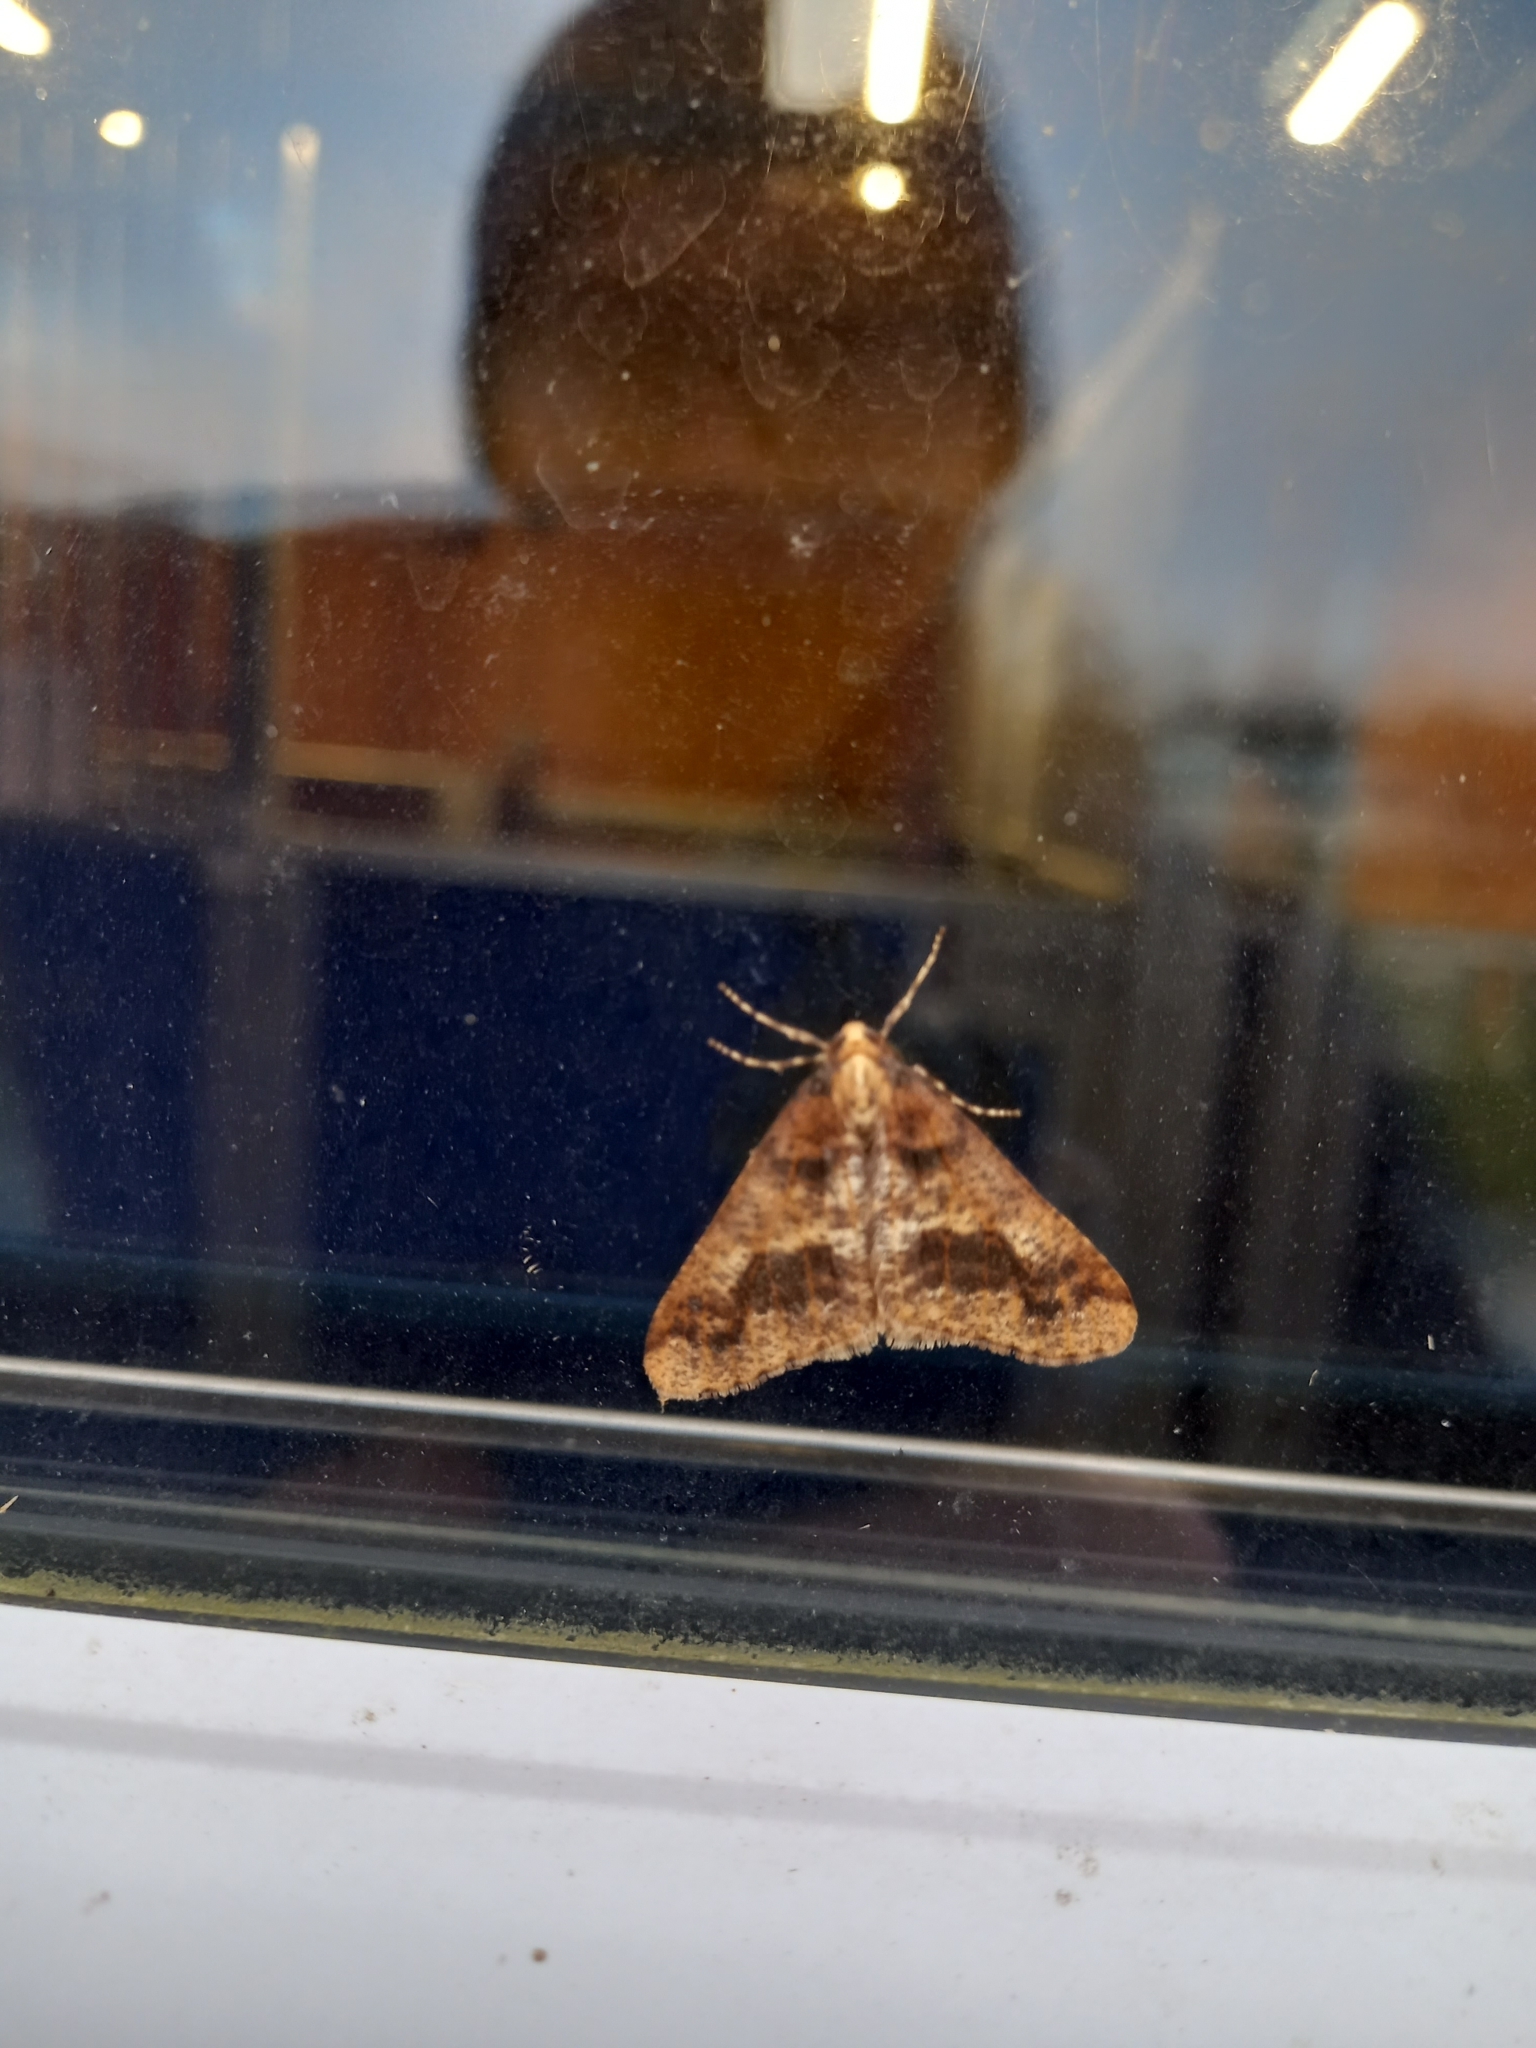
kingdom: Animalia
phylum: Arthropoda
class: Insecta
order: Lepidoptera
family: Geometridae
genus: Erannis
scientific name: Erannis defoliaria
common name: Mottled umber
